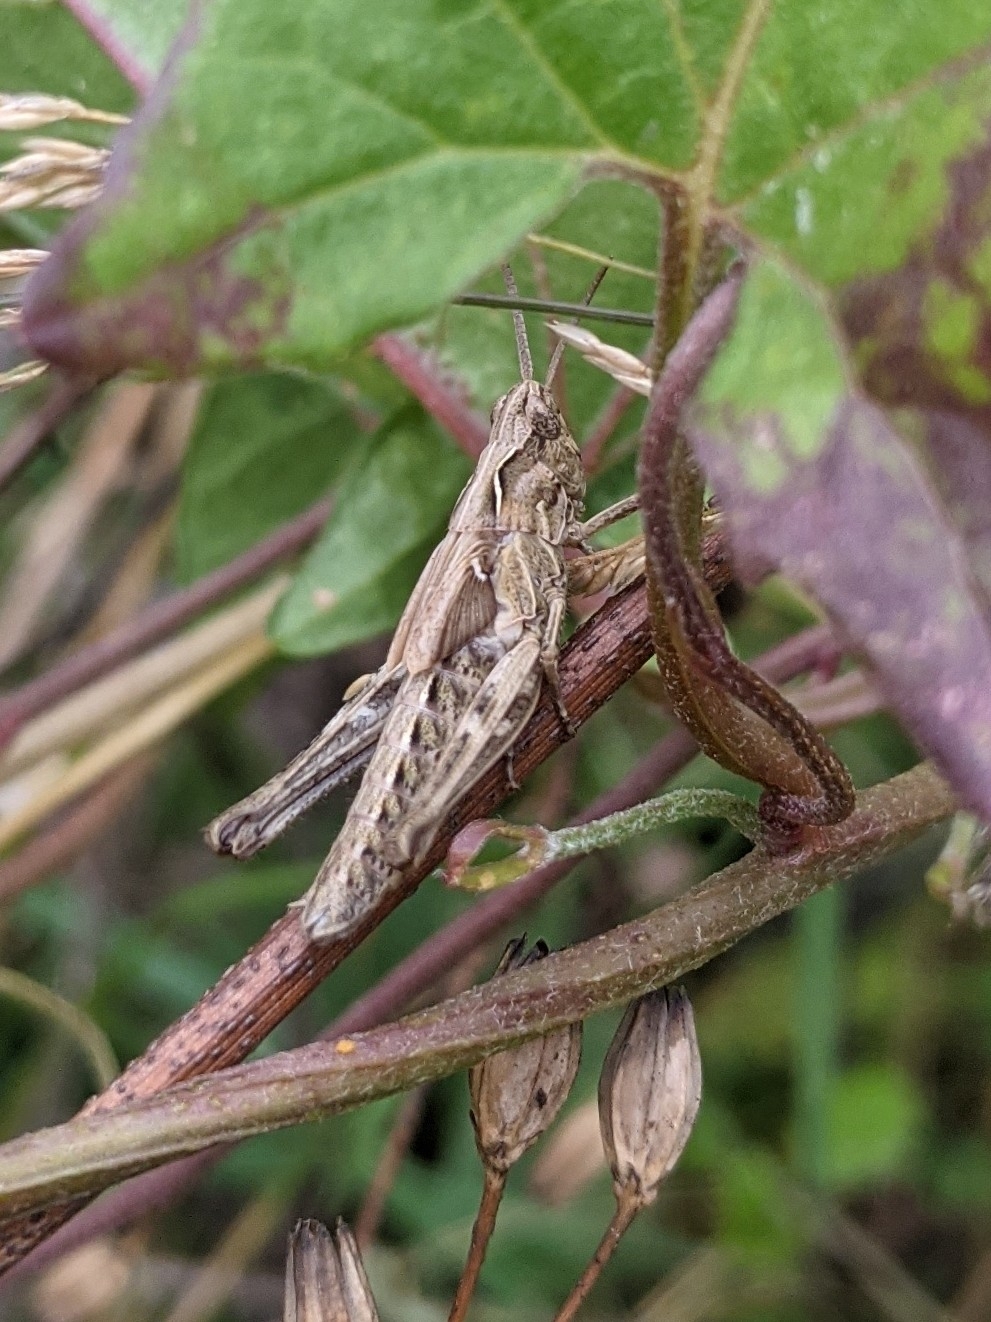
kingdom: Animalia
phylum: Arthropoda
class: Insecta
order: Orthoptera
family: Acrididae
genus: Chorthippus
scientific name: Chorthippus brunneus
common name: Field grasshopper
